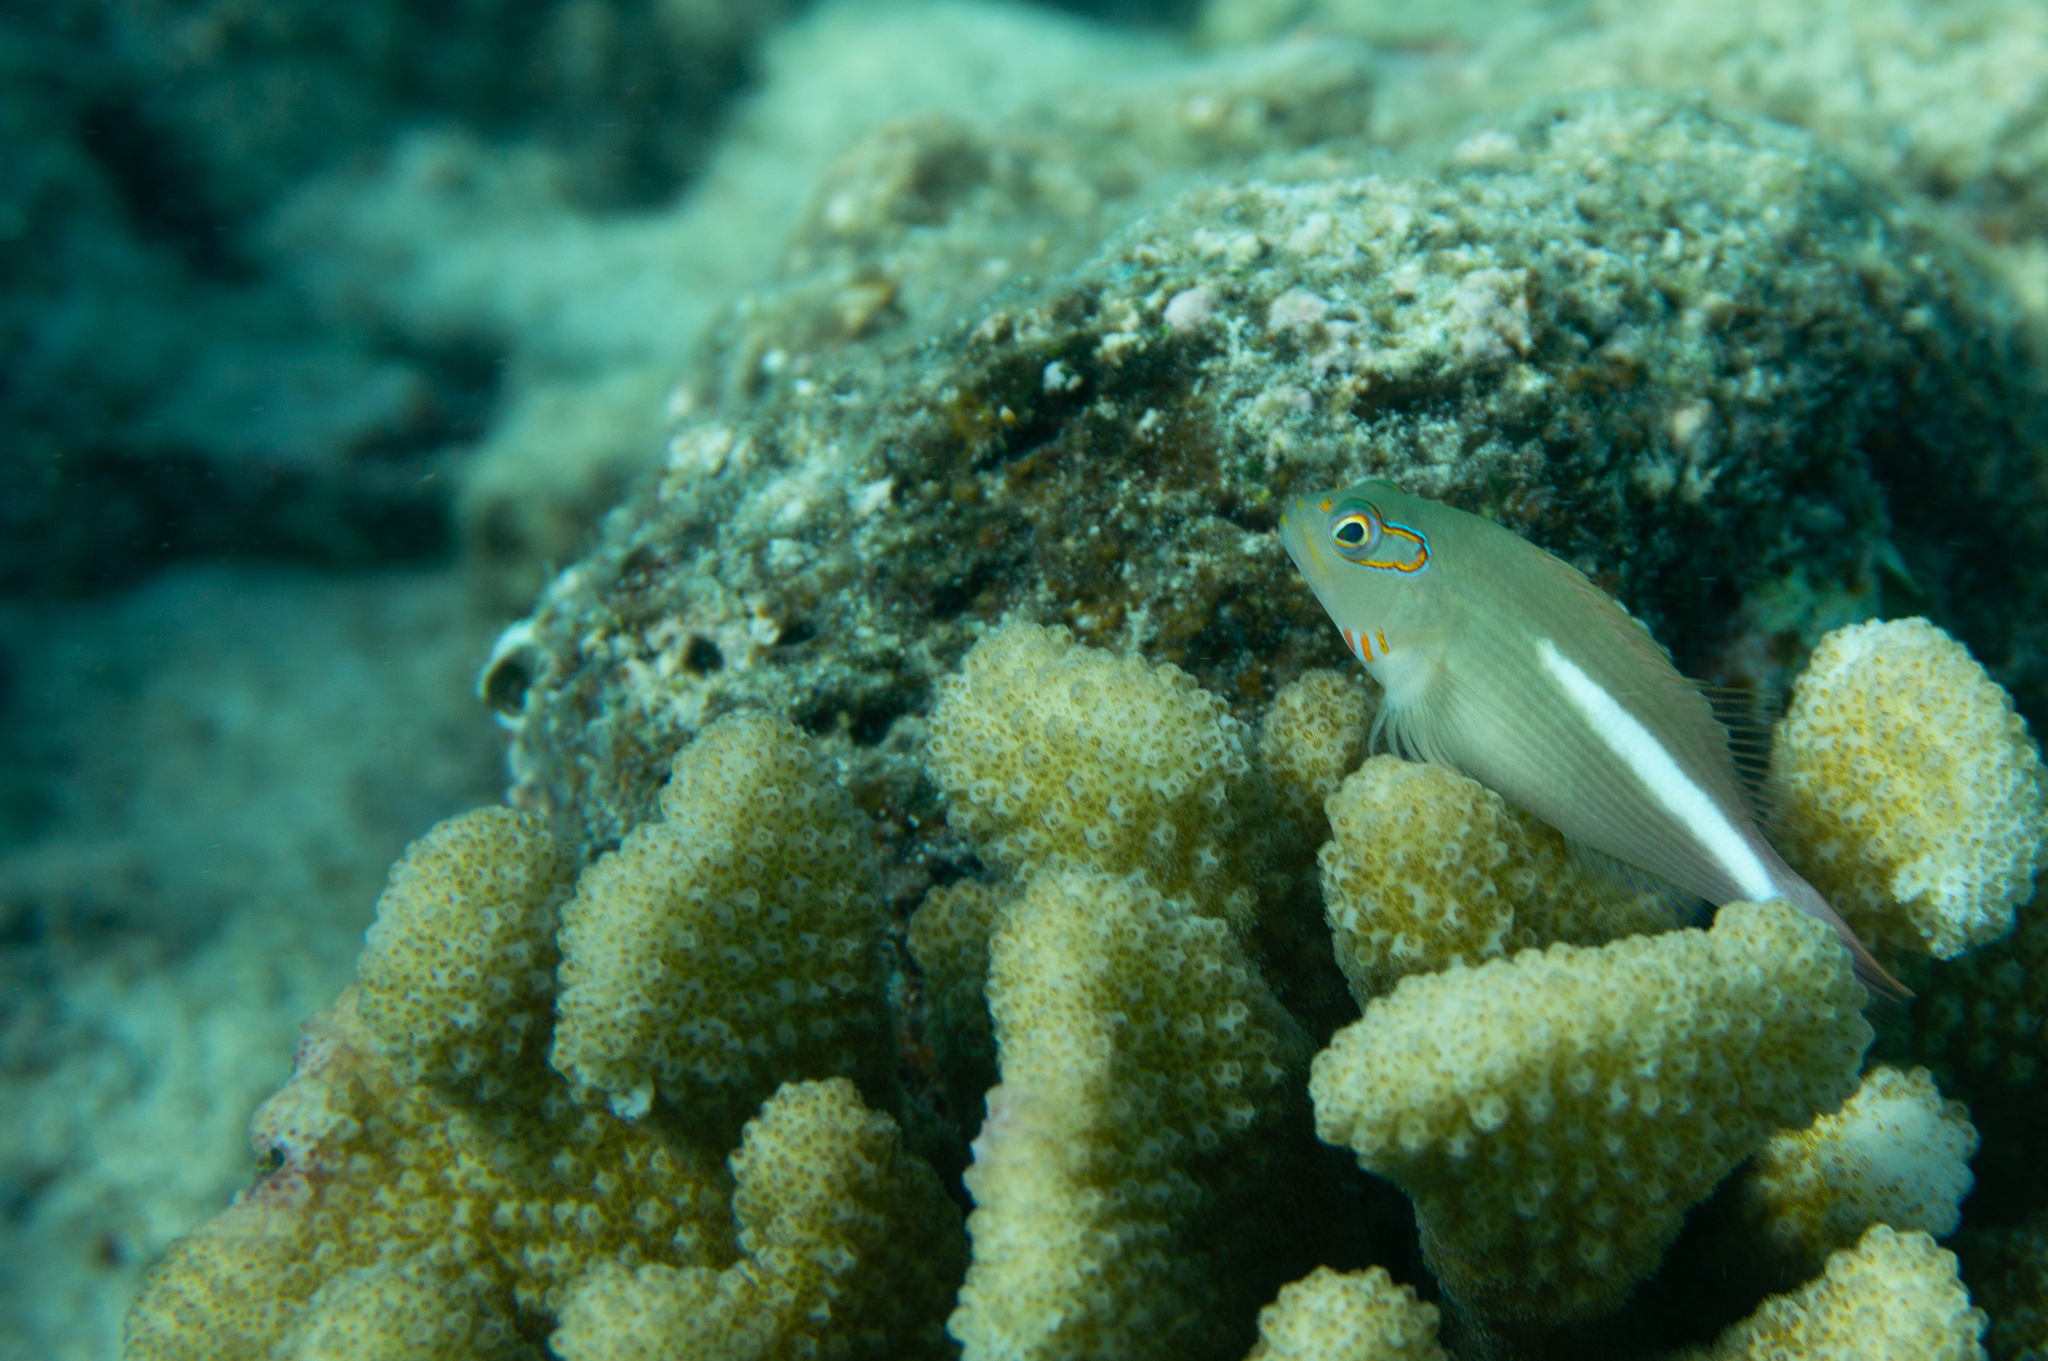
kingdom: Animalia
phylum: Chordata
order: Perciformes
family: Cirrhitidae
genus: Paracirrhites
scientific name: Paracirrhites arcatus
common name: Arc-eye hawkfish
